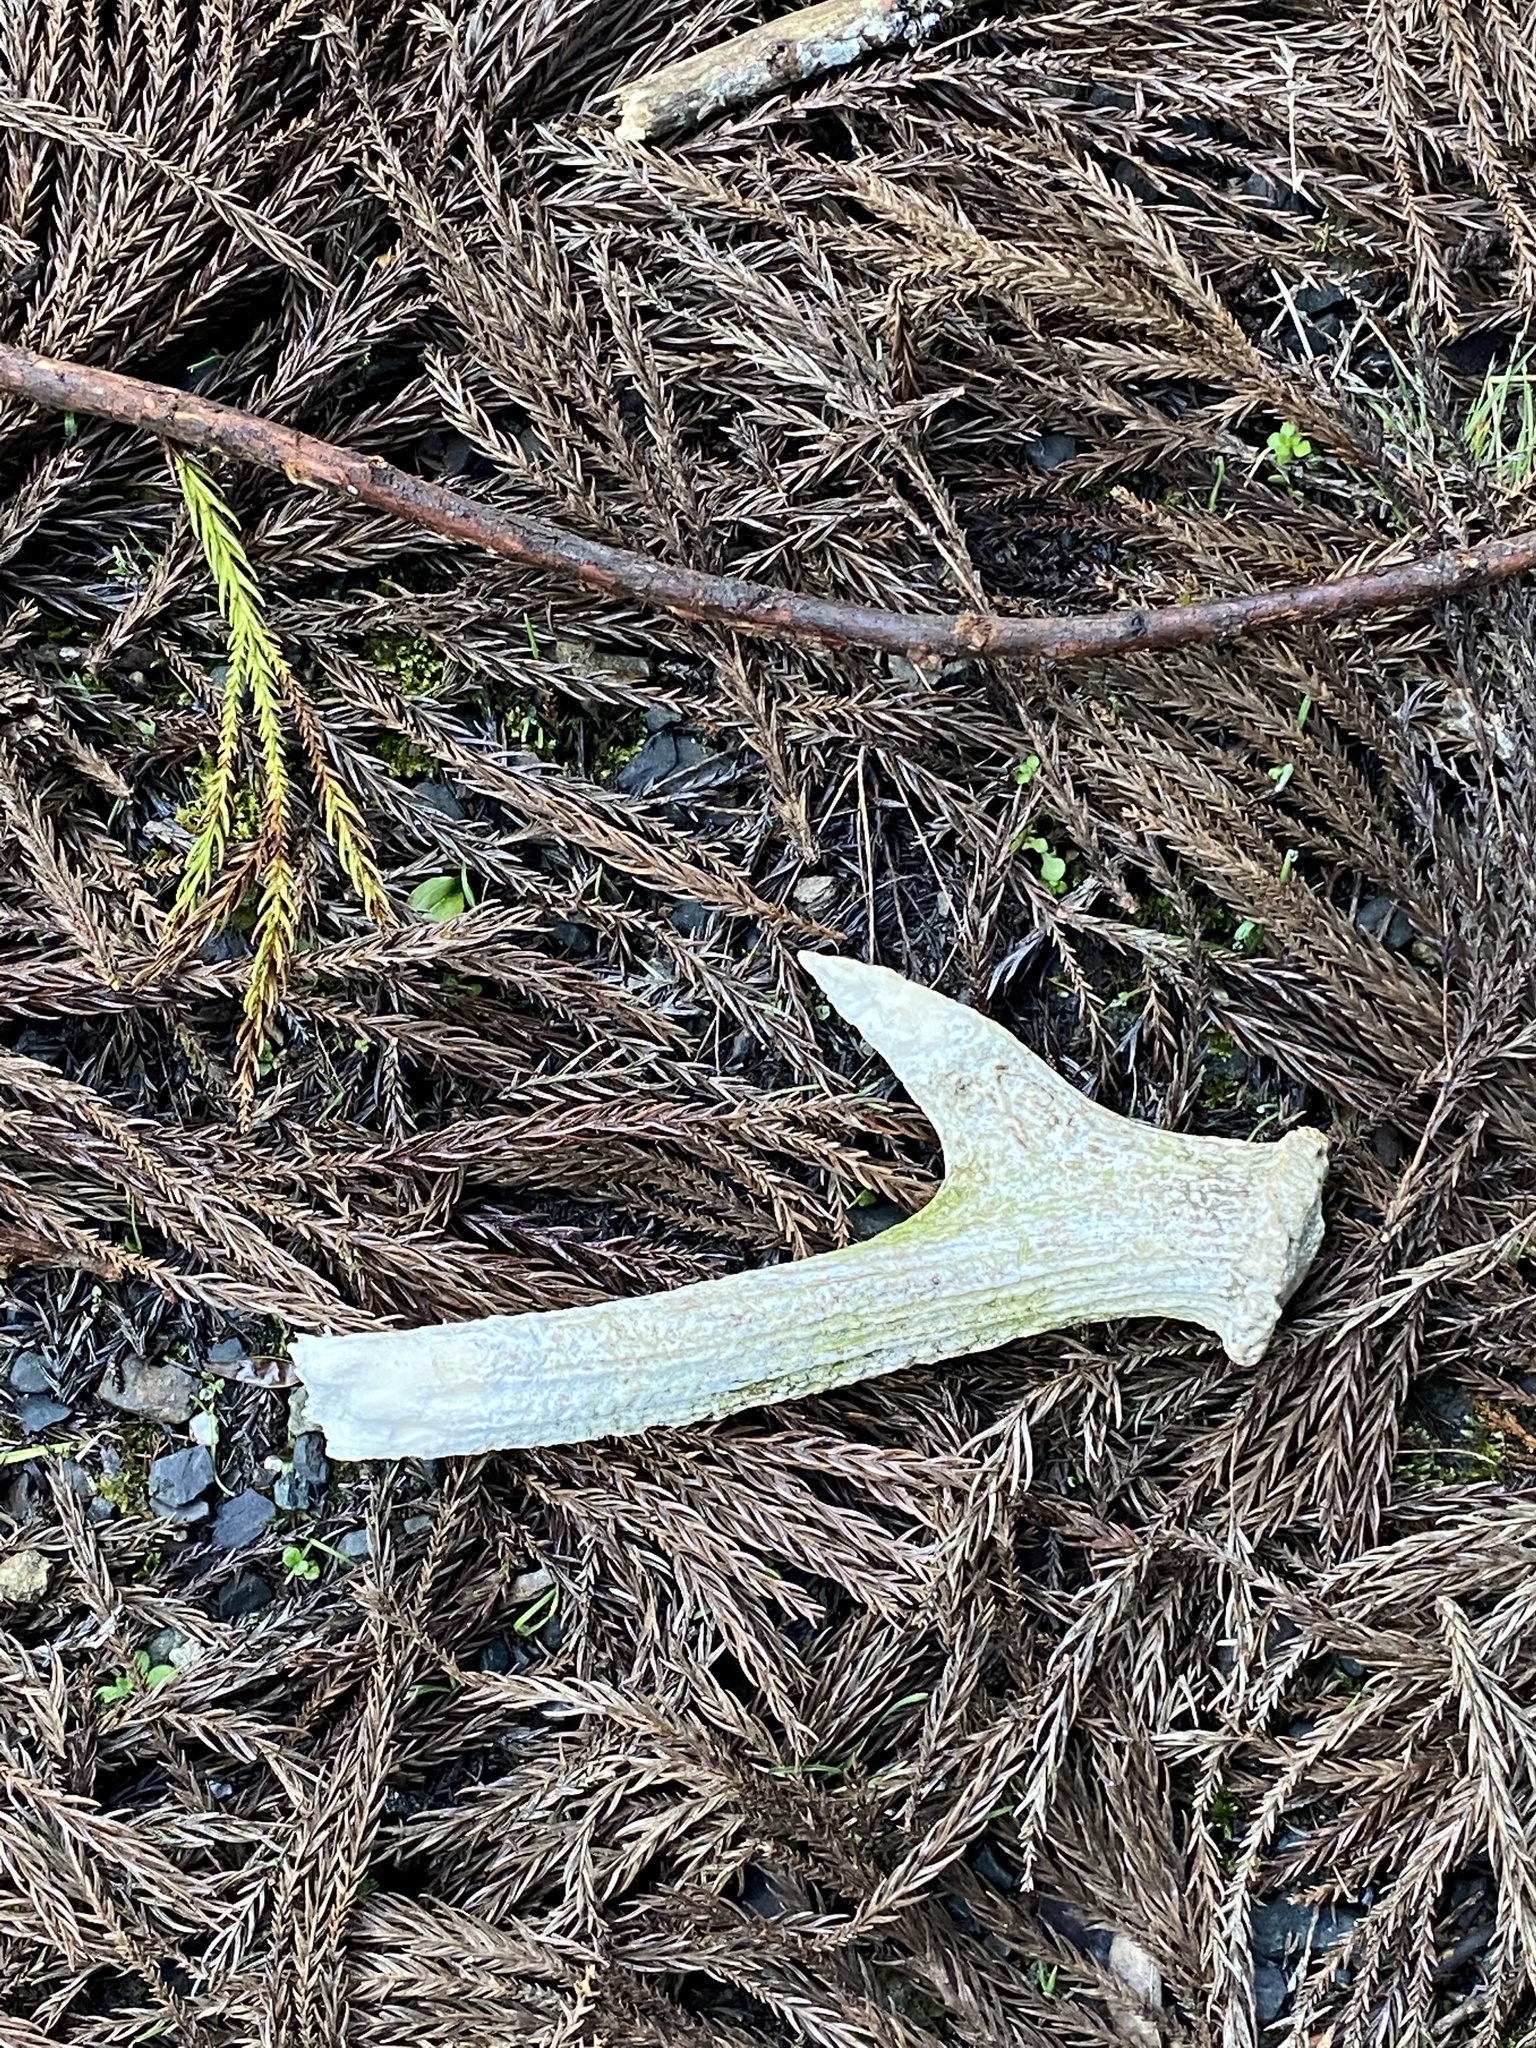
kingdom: Animalia
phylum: Chordata
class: Mammalia
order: Artiodactyla
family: Cervidae
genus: Cervus
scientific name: Cervus nippon
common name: Sika deer
